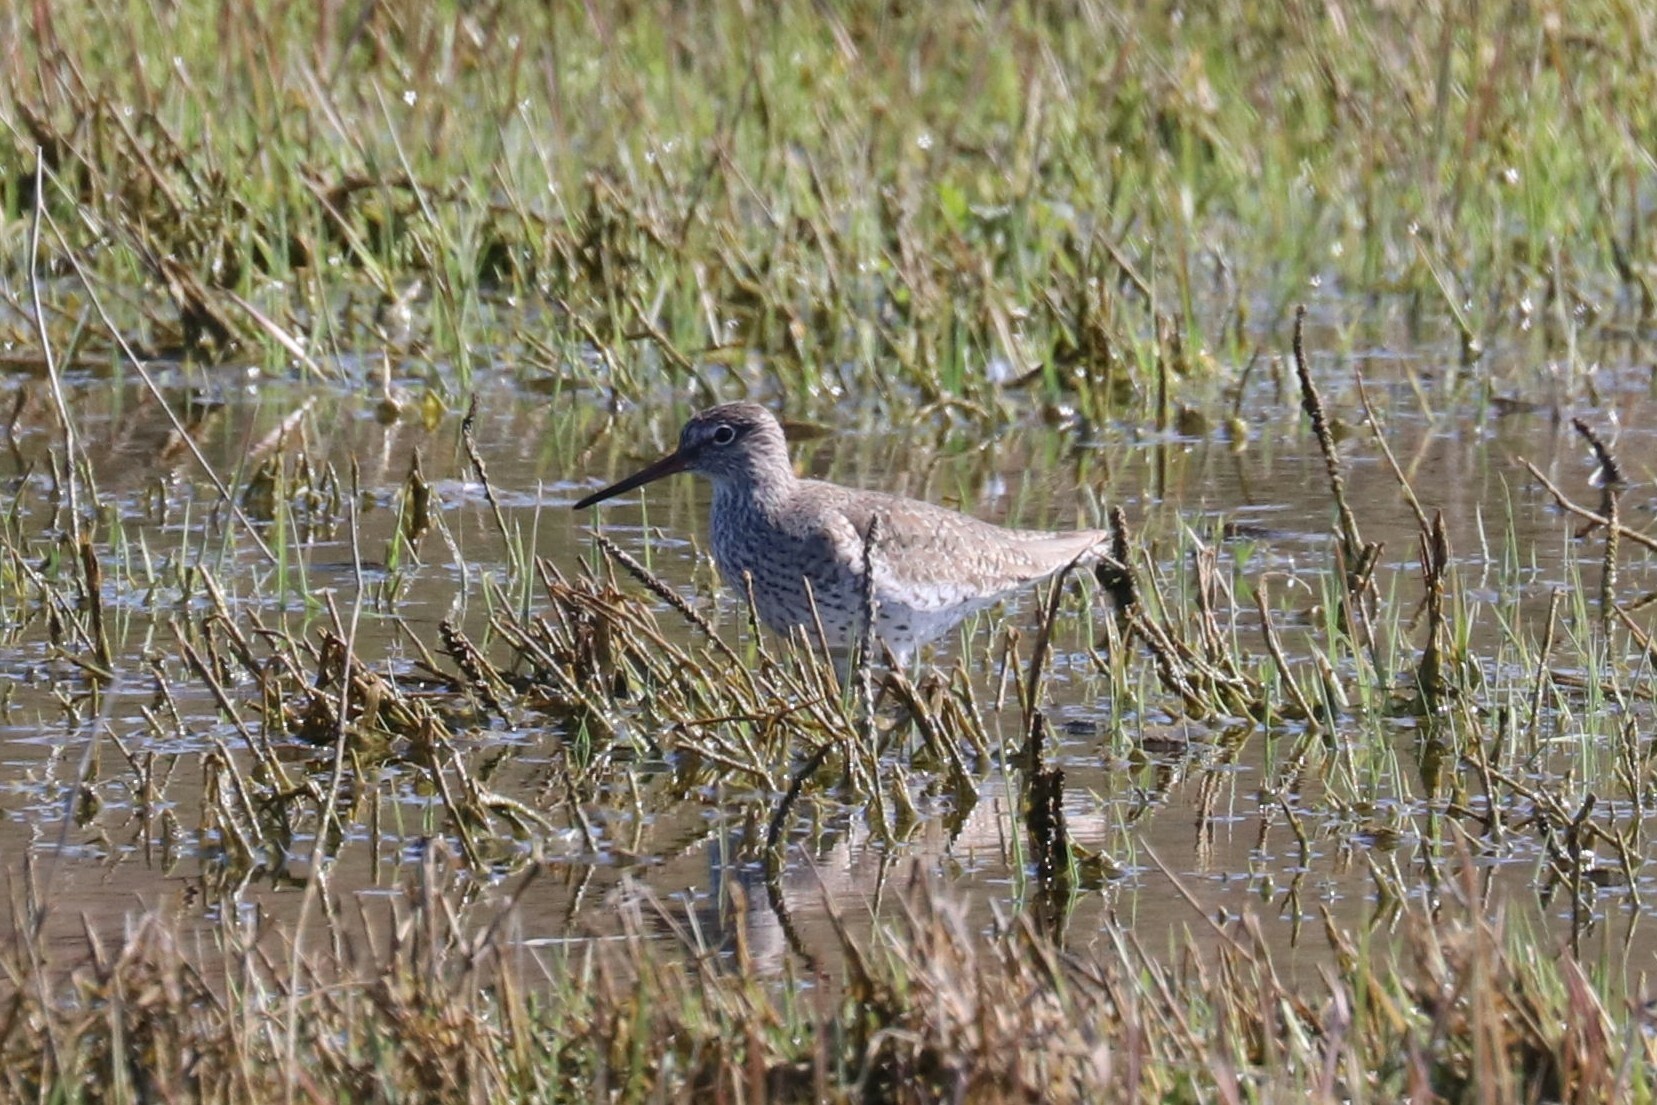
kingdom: Animalia
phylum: Chordata
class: Aves
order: Charadriiformes
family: Scolopacidae
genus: Tringa
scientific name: Tringa totanus
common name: Common redshank
